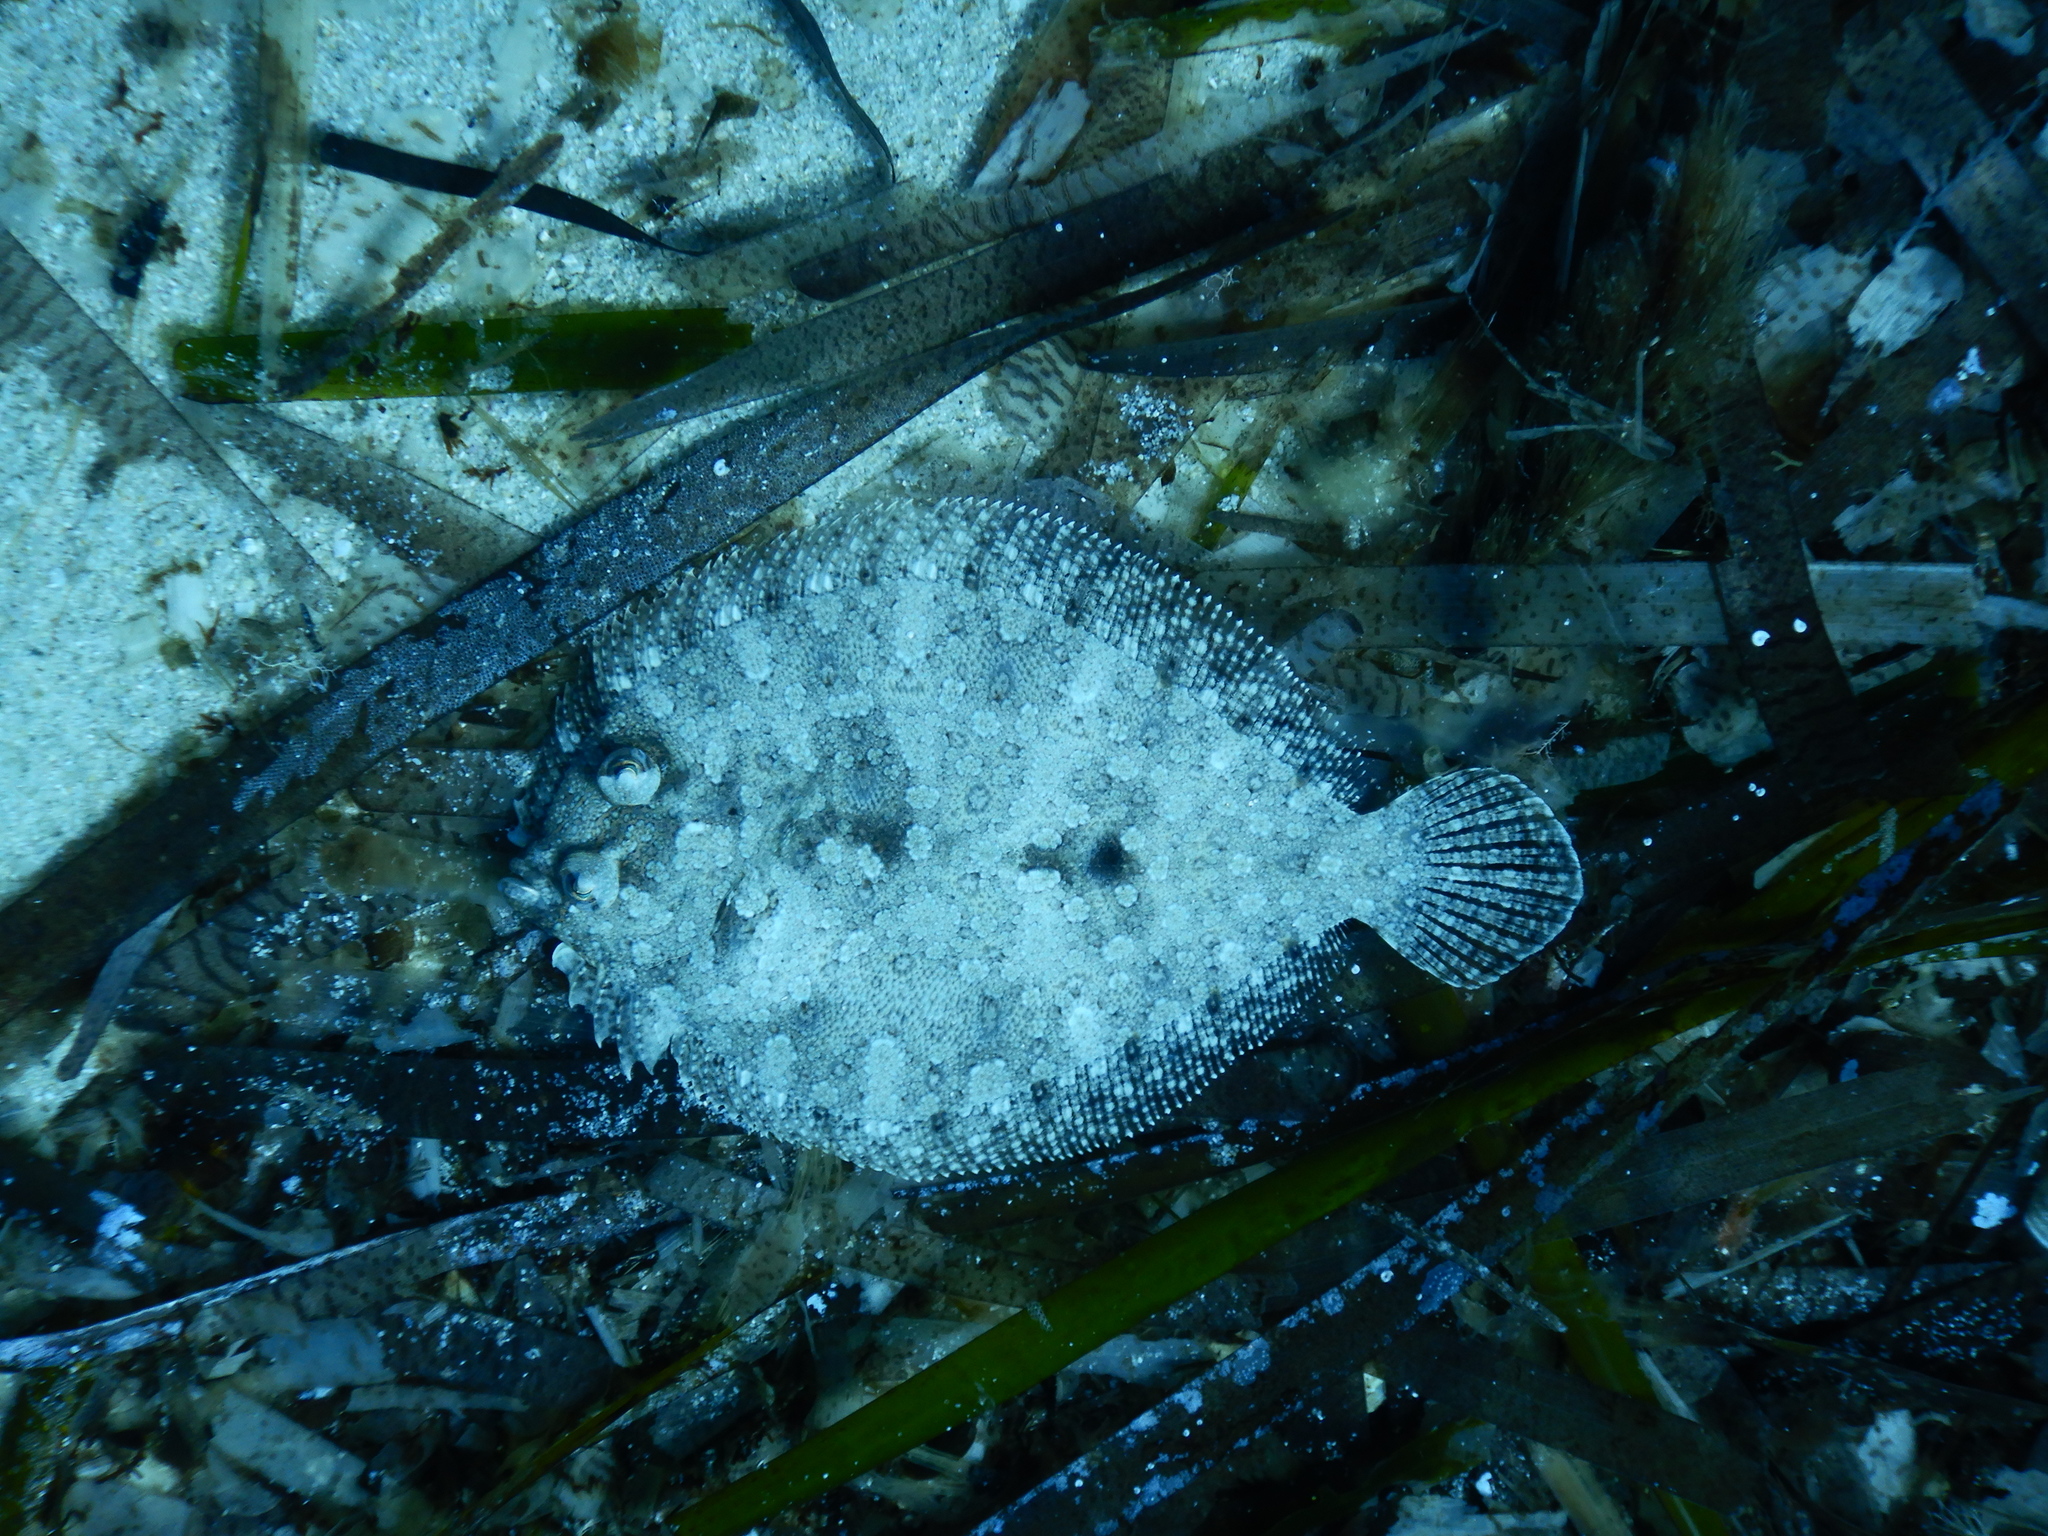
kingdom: Animalia
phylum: Chordata
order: Pleuronectiformes
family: Bothidae
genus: Bothus
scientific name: Bothus podas
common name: Wide-eyed flounder
